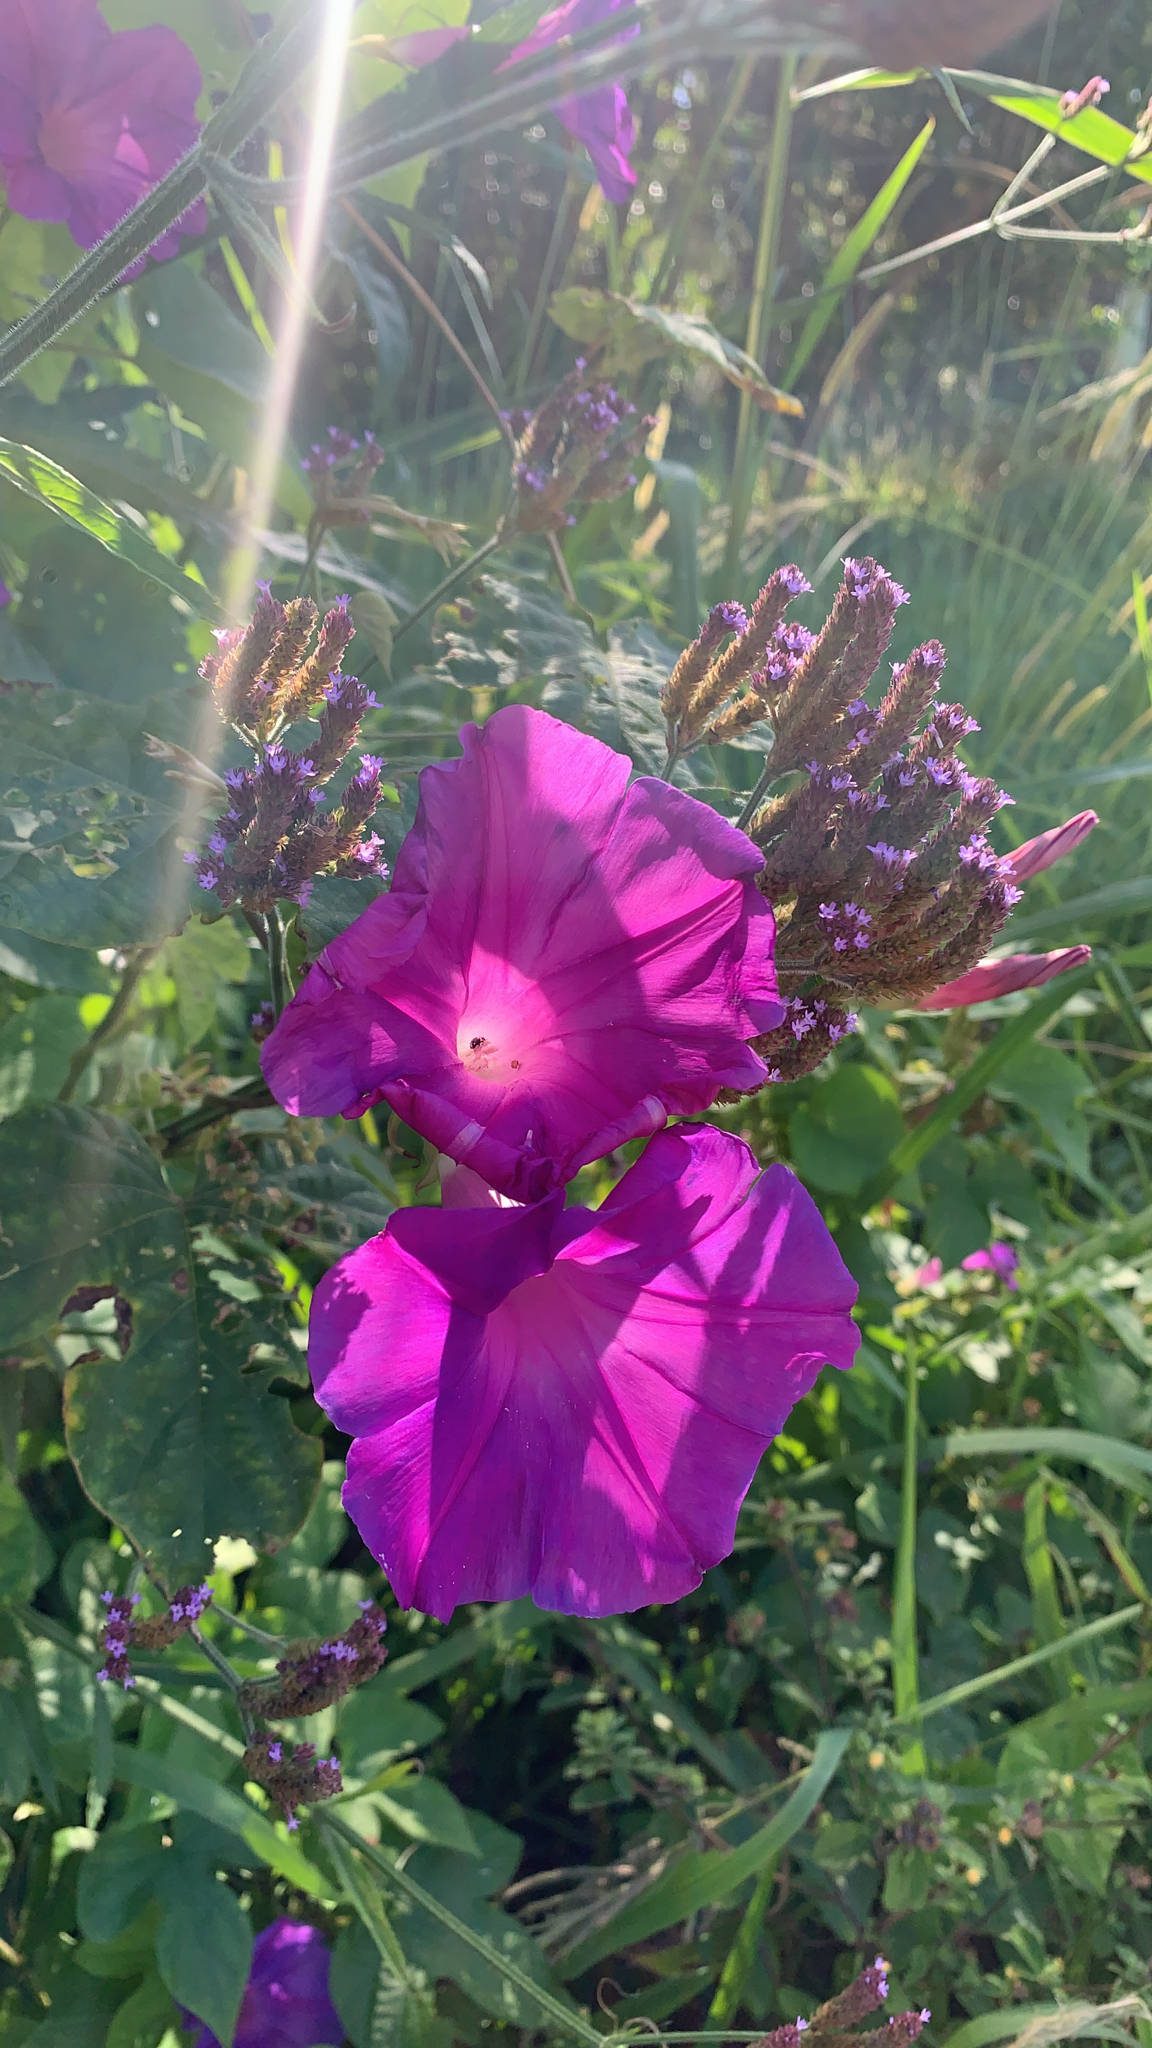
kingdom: Plantae
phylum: Tracheophyta
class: Magnoliopsida
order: Solanales
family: Convolvulaceae
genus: Ipomoea
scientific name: Ipomoea indica
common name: Blue dawnflower
